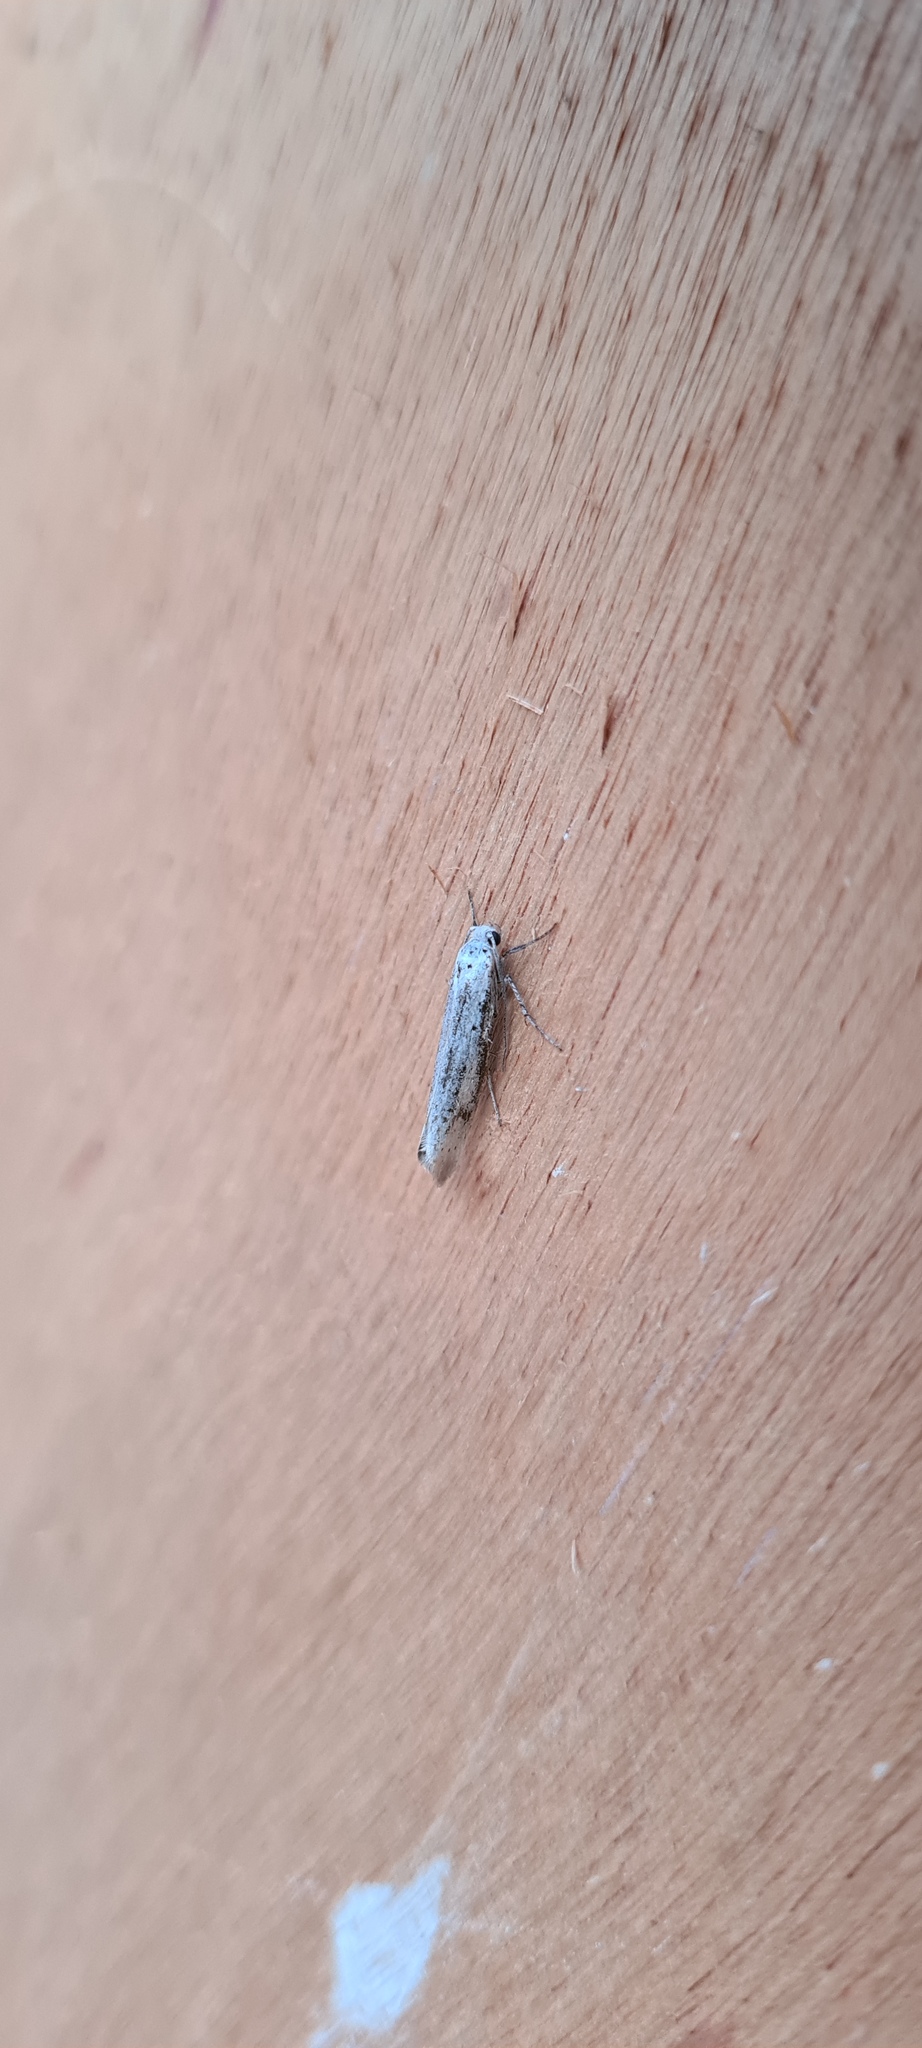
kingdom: Animalia
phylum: Arthropoda
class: Insecta
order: Lepidoptera
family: Erebidae
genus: Coscinia
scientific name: Coscinia cribraria
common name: Speckled footman
